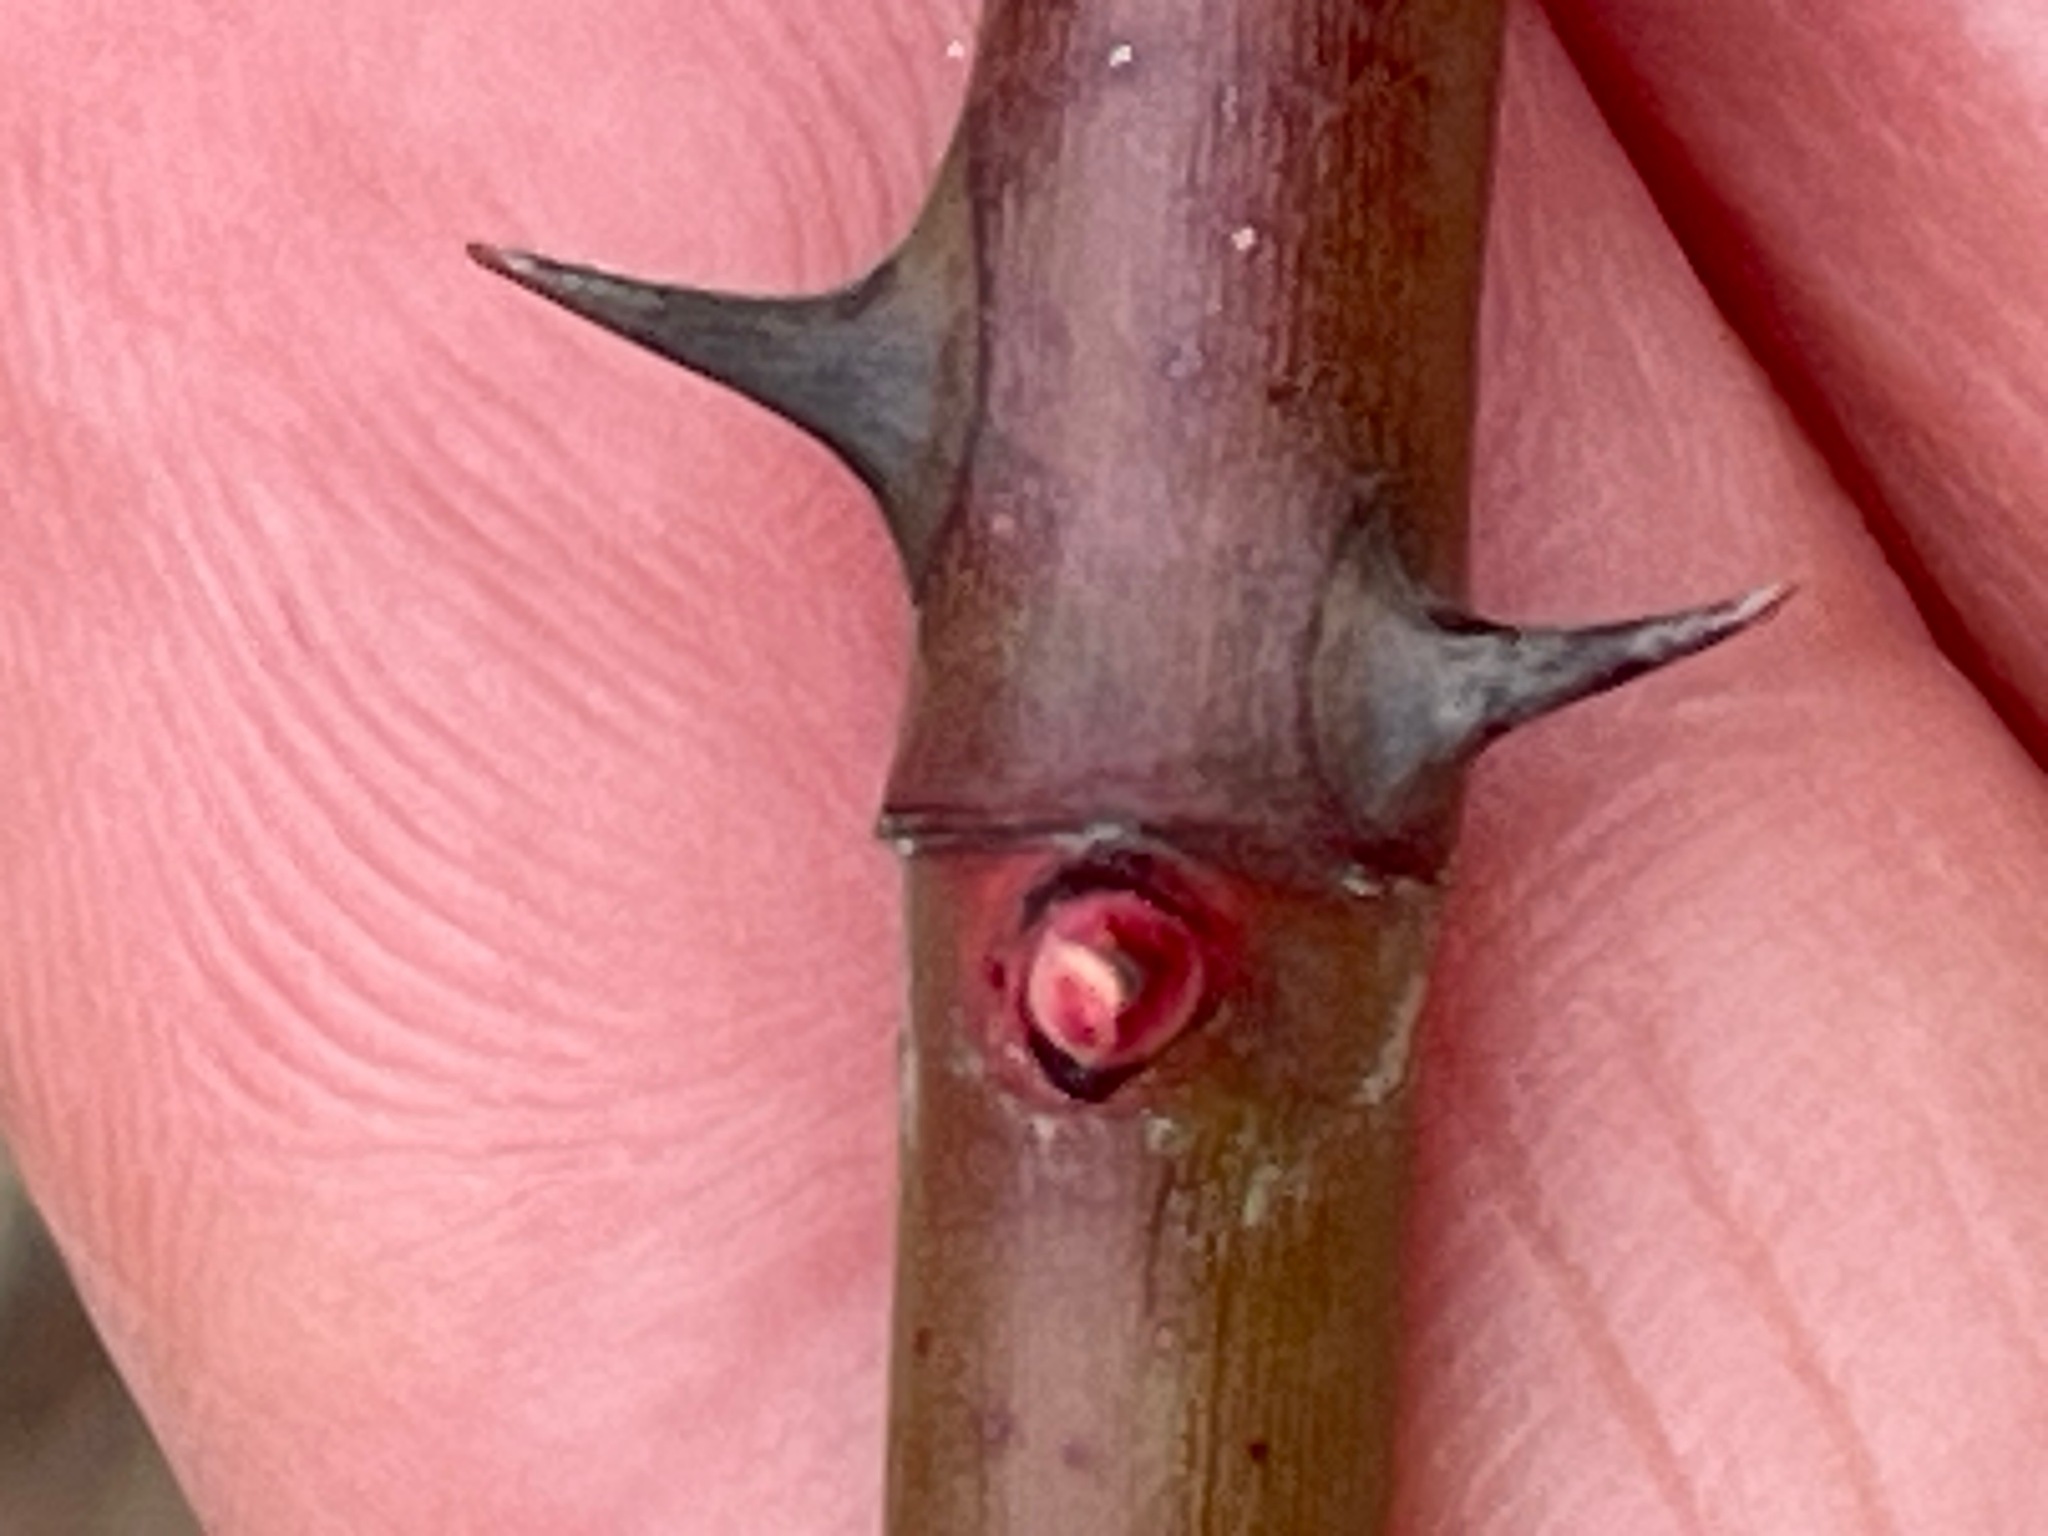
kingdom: Plantae
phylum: Tracheophyta
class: Magnoliopsida
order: Rosales
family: Rosaceae
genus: Rosa
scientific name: Rosa multiflora
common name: Multiflora rose
